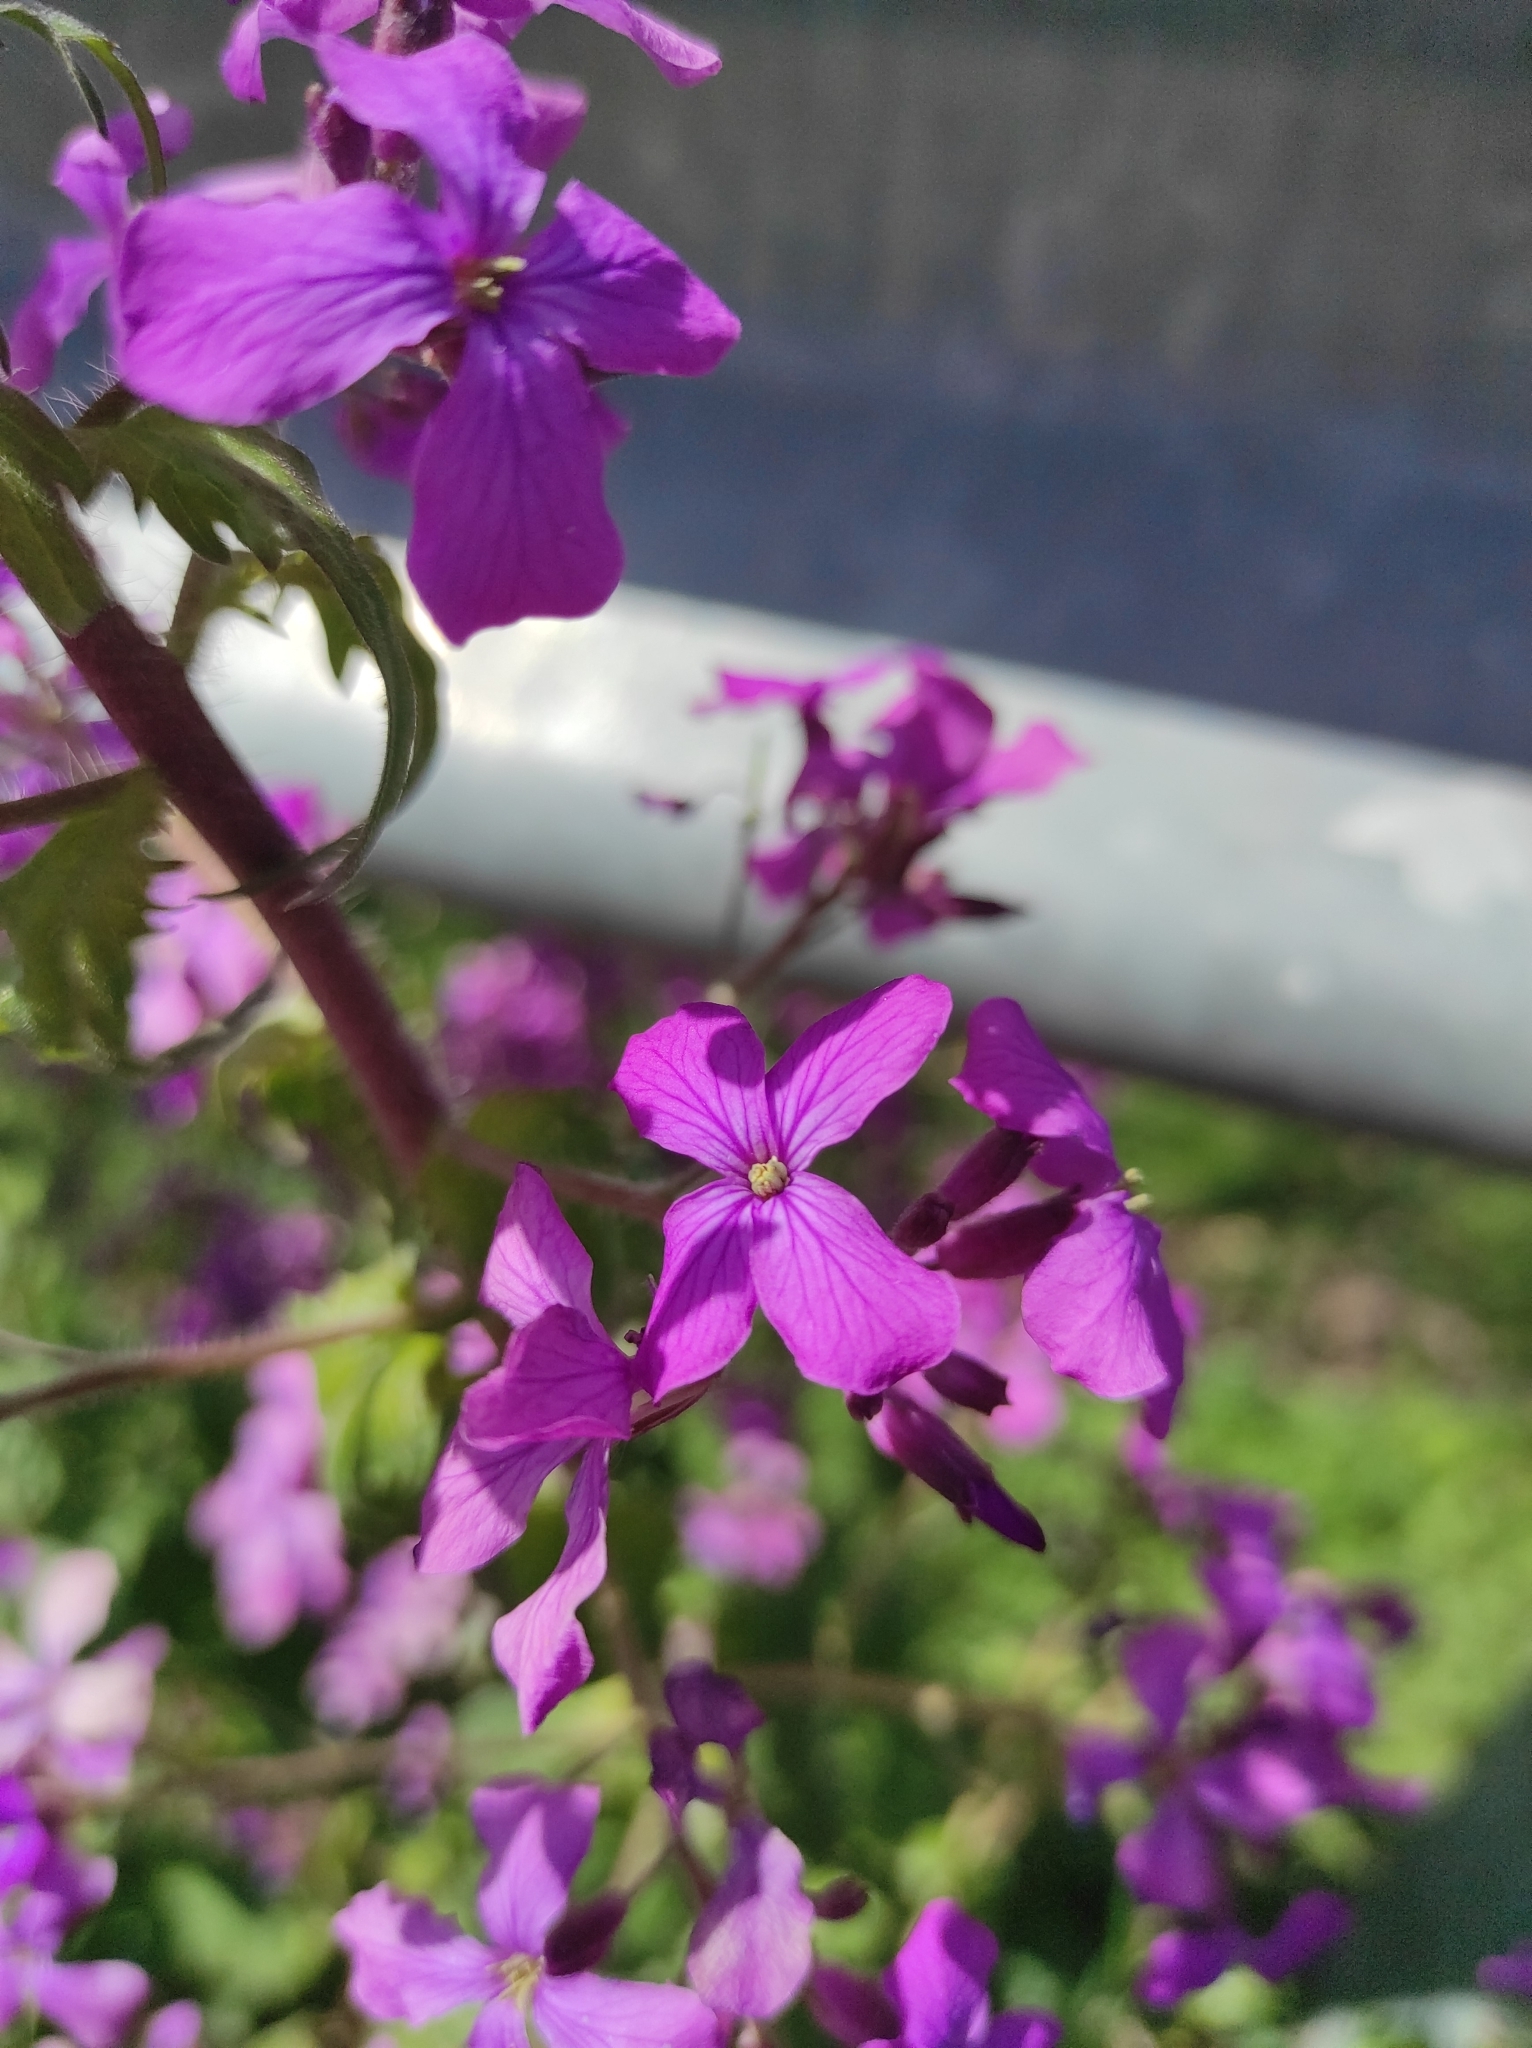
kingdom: Plantae
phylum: Tracheophyta
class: Magnoliopsida
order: Brassicales
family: Brassicaceae
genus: Lunaria
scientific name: Lunaria annua
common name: Honesty
